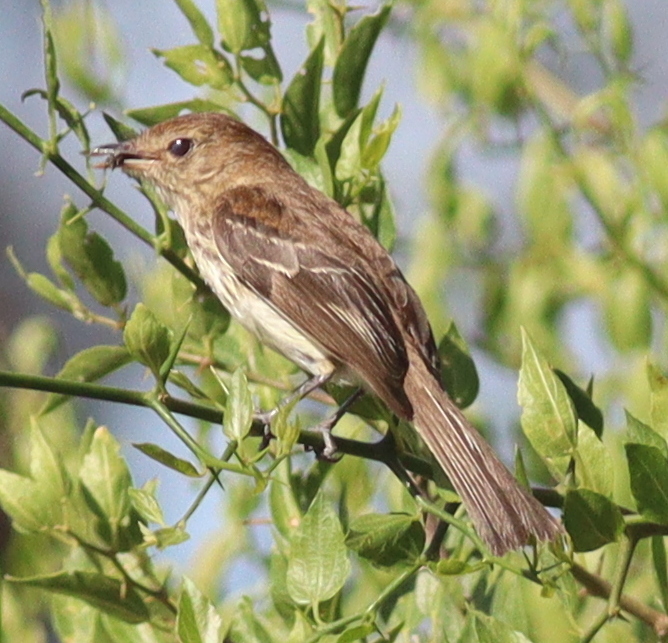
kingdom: Animalia
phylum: Chordata
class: Aves
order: Passeriformes
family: Tyrannidae
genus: Myiophobus
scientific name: Myiophobus fasciatus
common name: Bran-colored flycatcher
